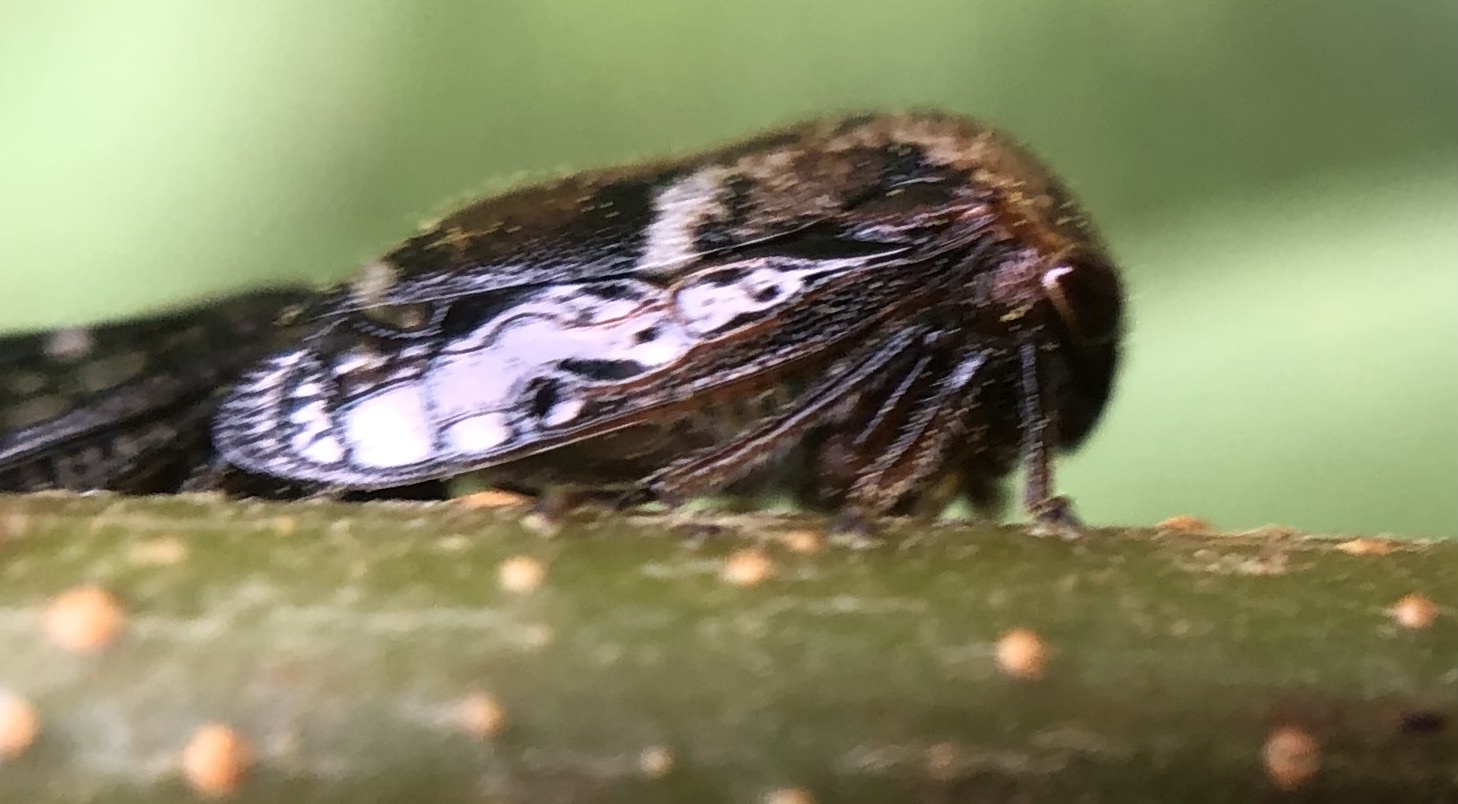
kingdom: Animalia
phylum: Arthropoda
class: Insecta
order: Hemiptera
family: Membracidae
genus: Vanduzea
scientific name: Vanduzea arquata
